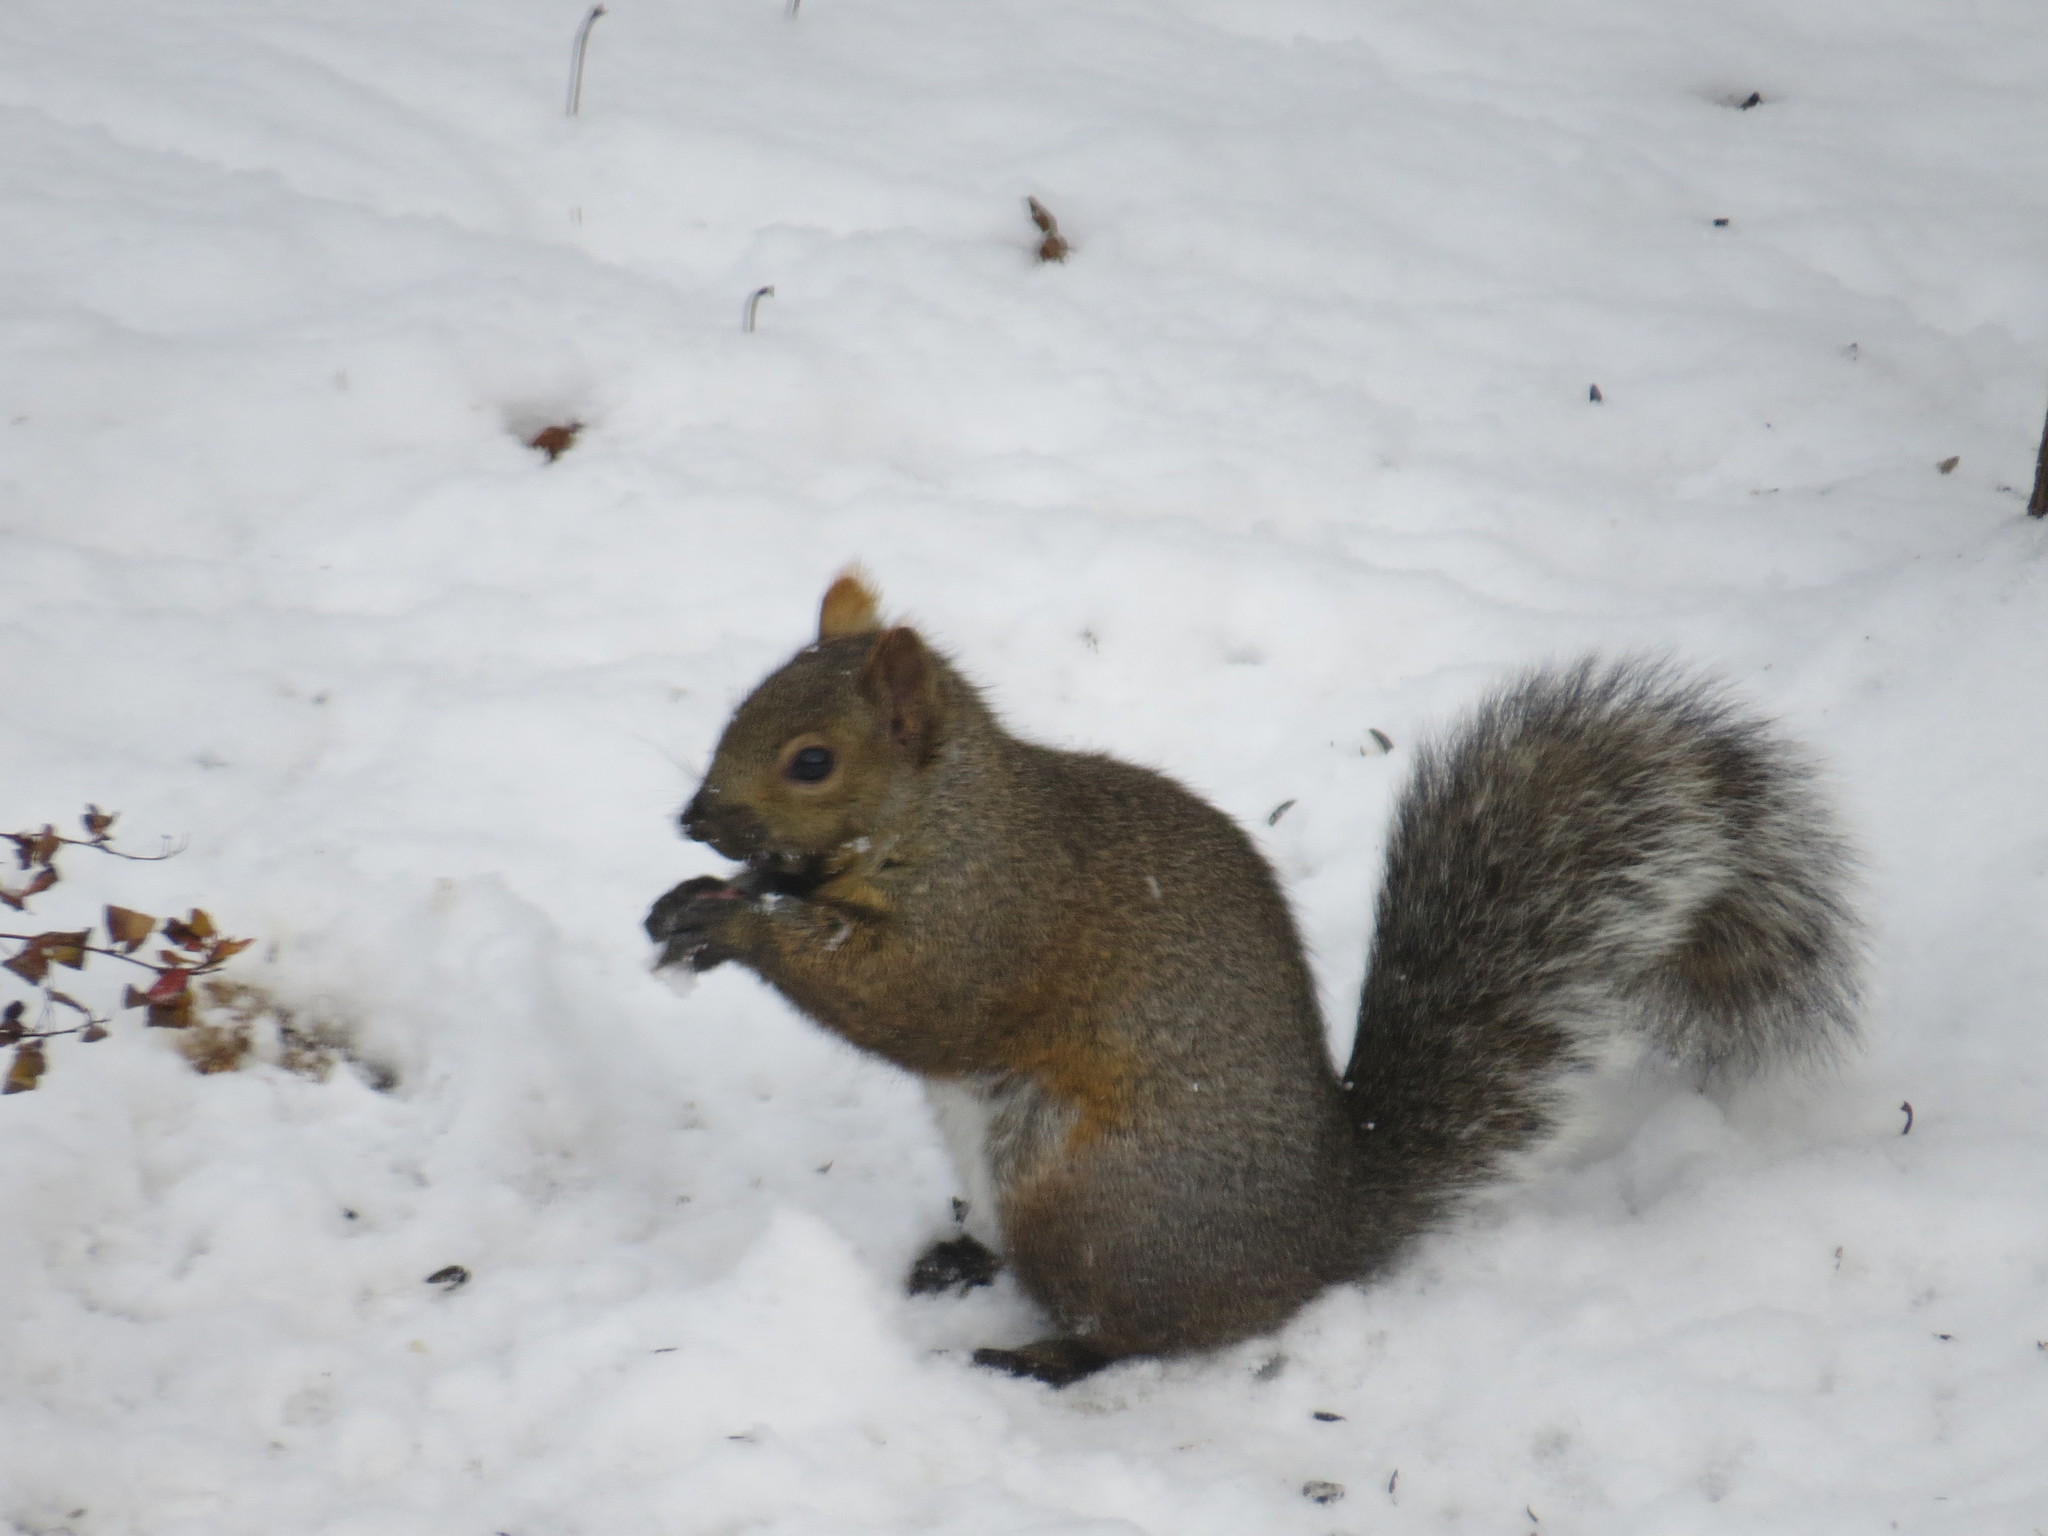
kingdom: Animalia
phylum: Chordata
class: Mammalia
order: Rodentia
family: Sciuridae
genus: Sciurus
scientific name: Sciurus carolinensis
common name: Eastern gray squirrel
